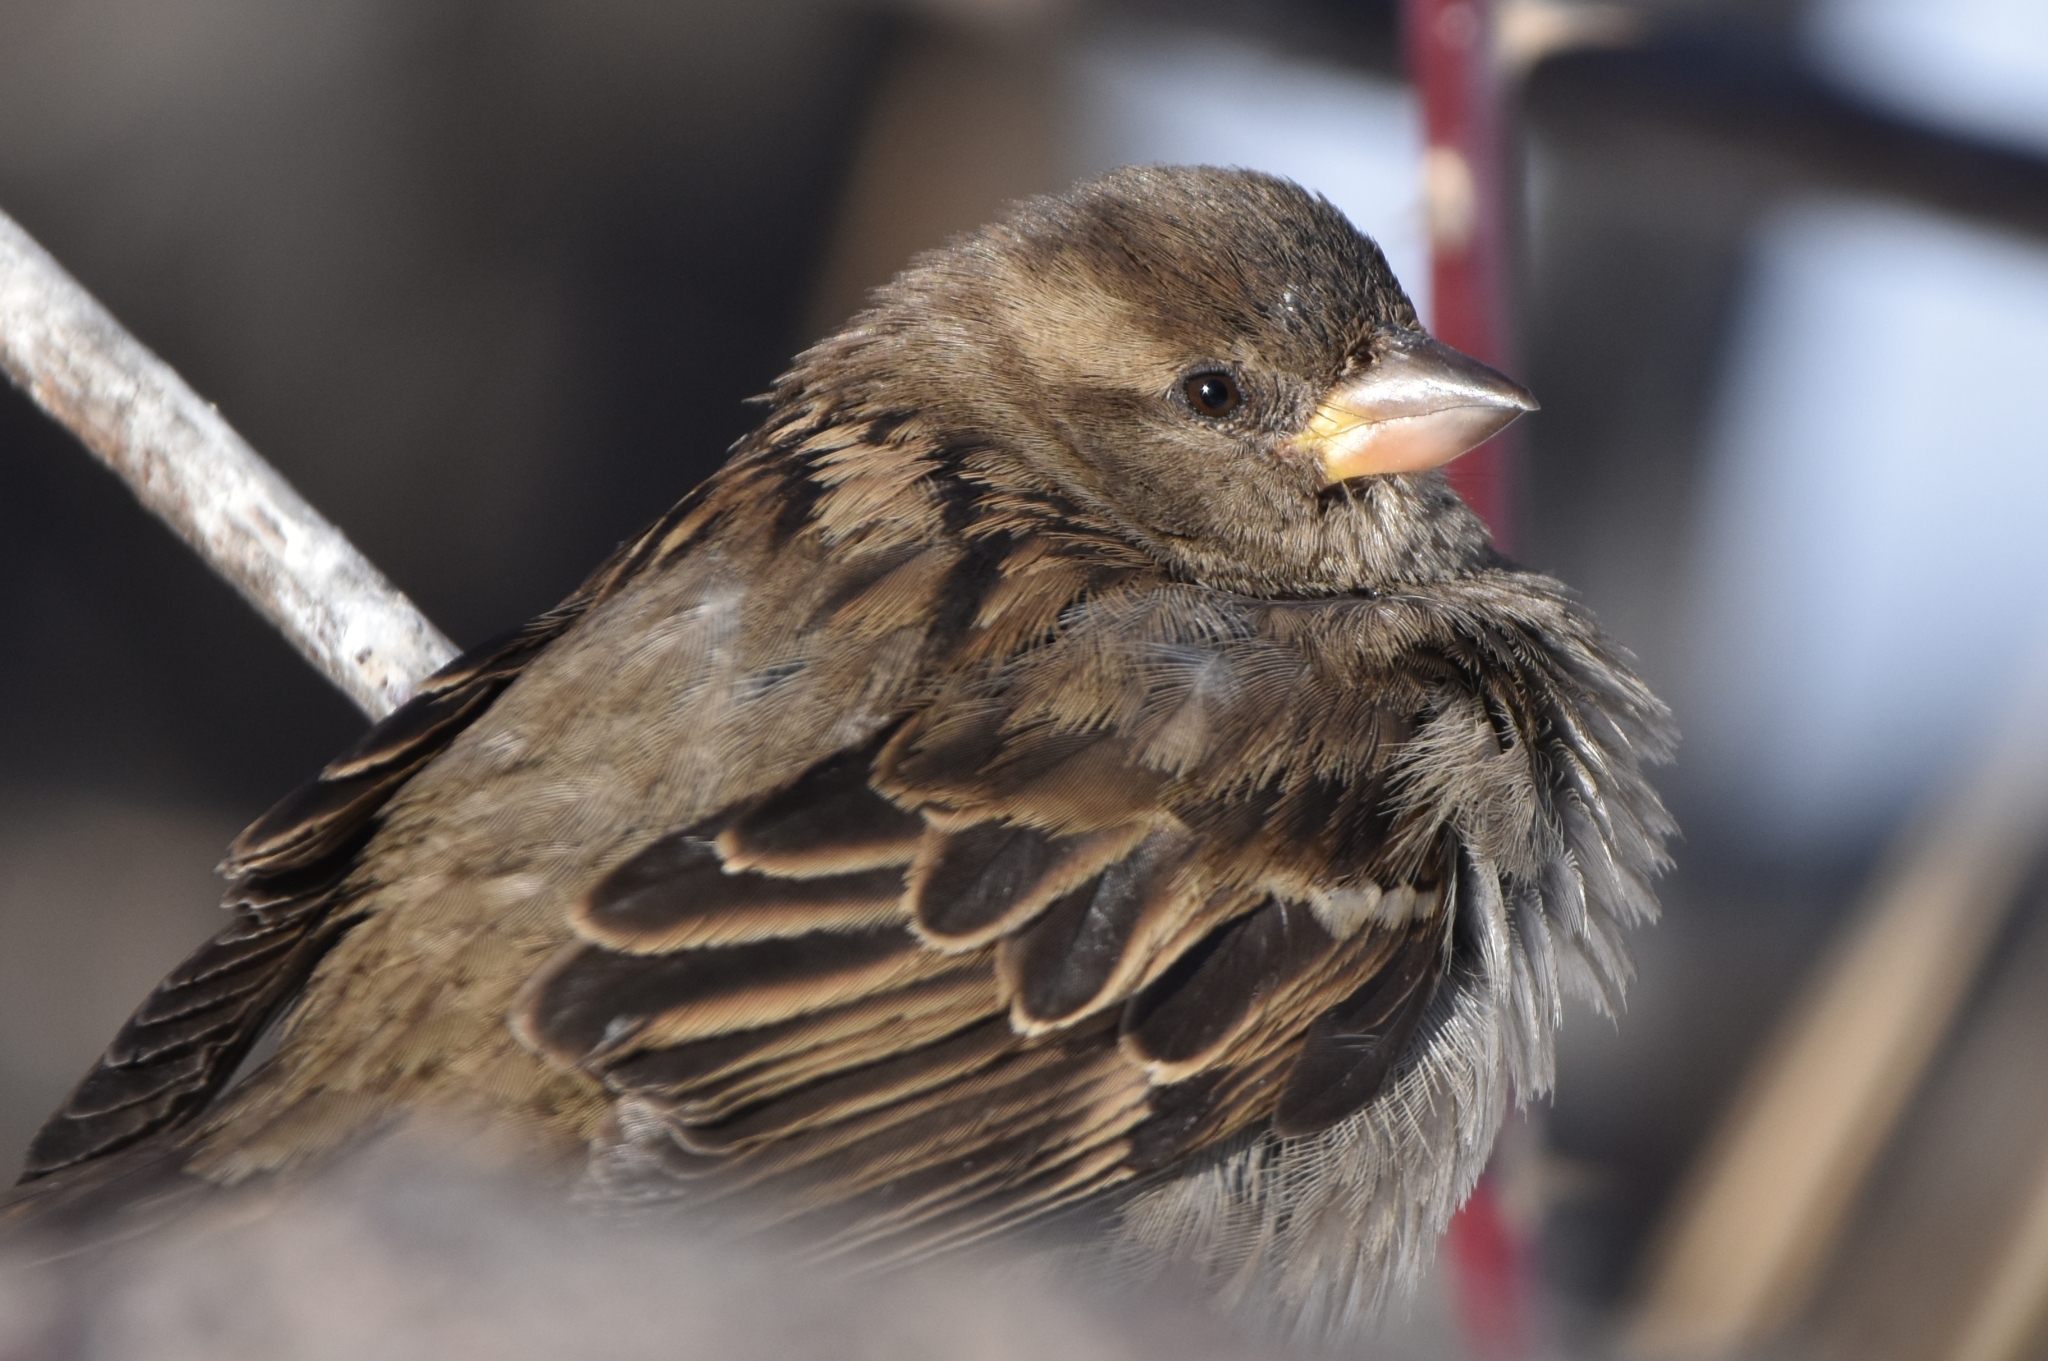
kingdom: Animalia
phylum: Chordata
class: Aves
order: Passeriformes
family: Passeridae
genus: Passer
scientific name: Passer domesticus
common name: House sparrow
